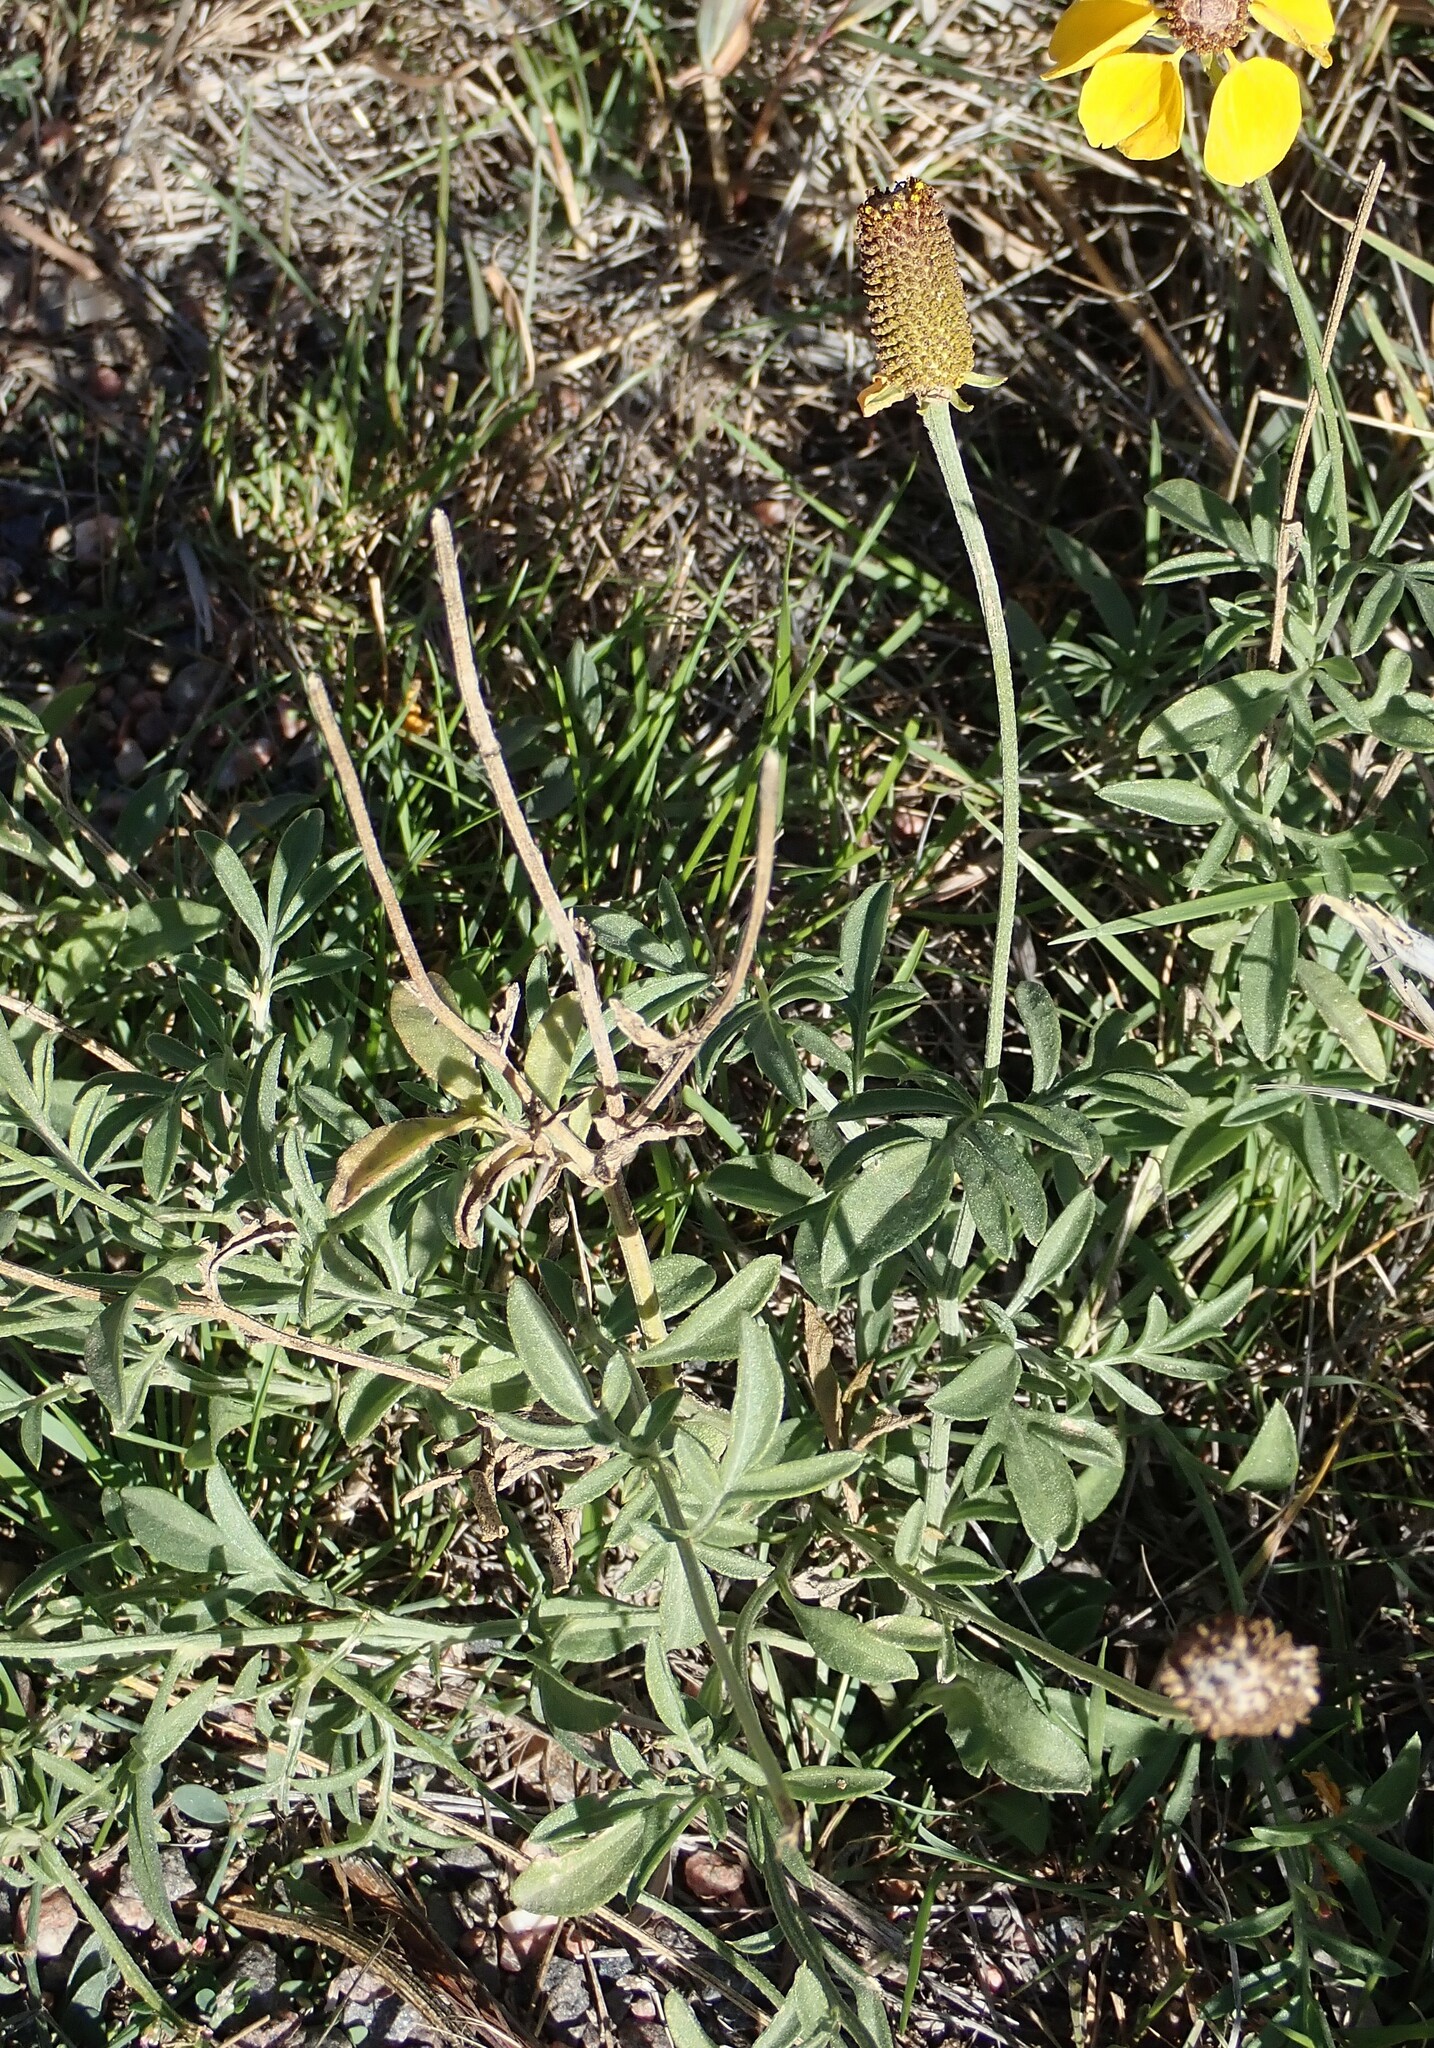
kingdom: Plantae
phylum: Tracheophyta
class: Magnoliopsida
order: Asterales
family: Asteraceae
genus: Ratibida
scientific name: Ratibida columnifera
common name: Prairie coneflower
